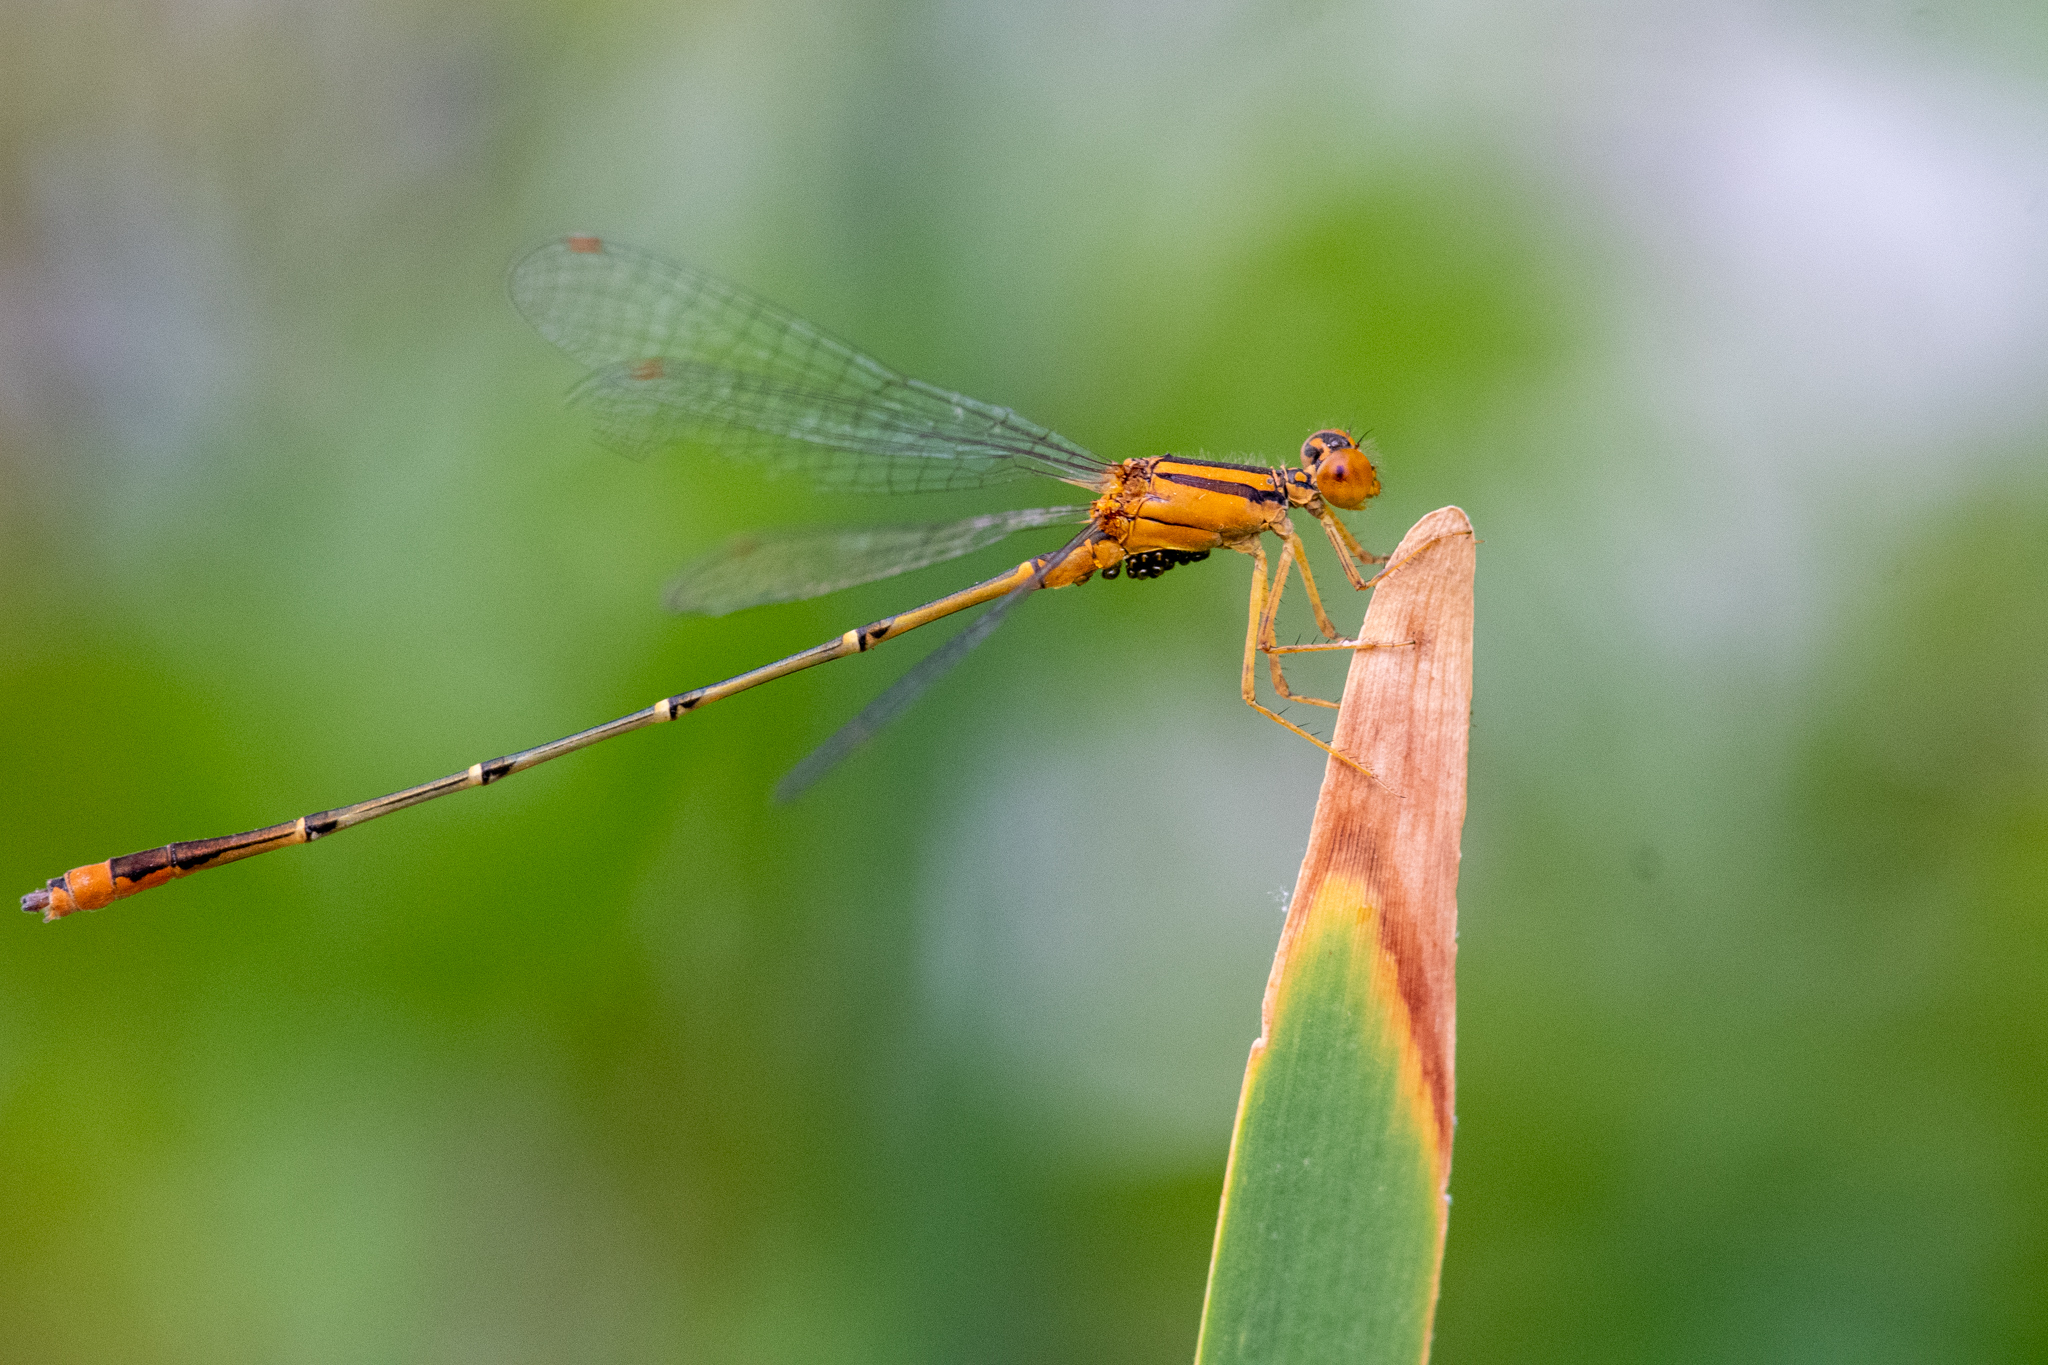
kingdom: Animalia
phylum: Arthropoda
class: Insecta
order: Odonata
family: Coenagrionidae
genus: Enallagma
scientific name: Enallagma signatum
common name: Orange bluet
